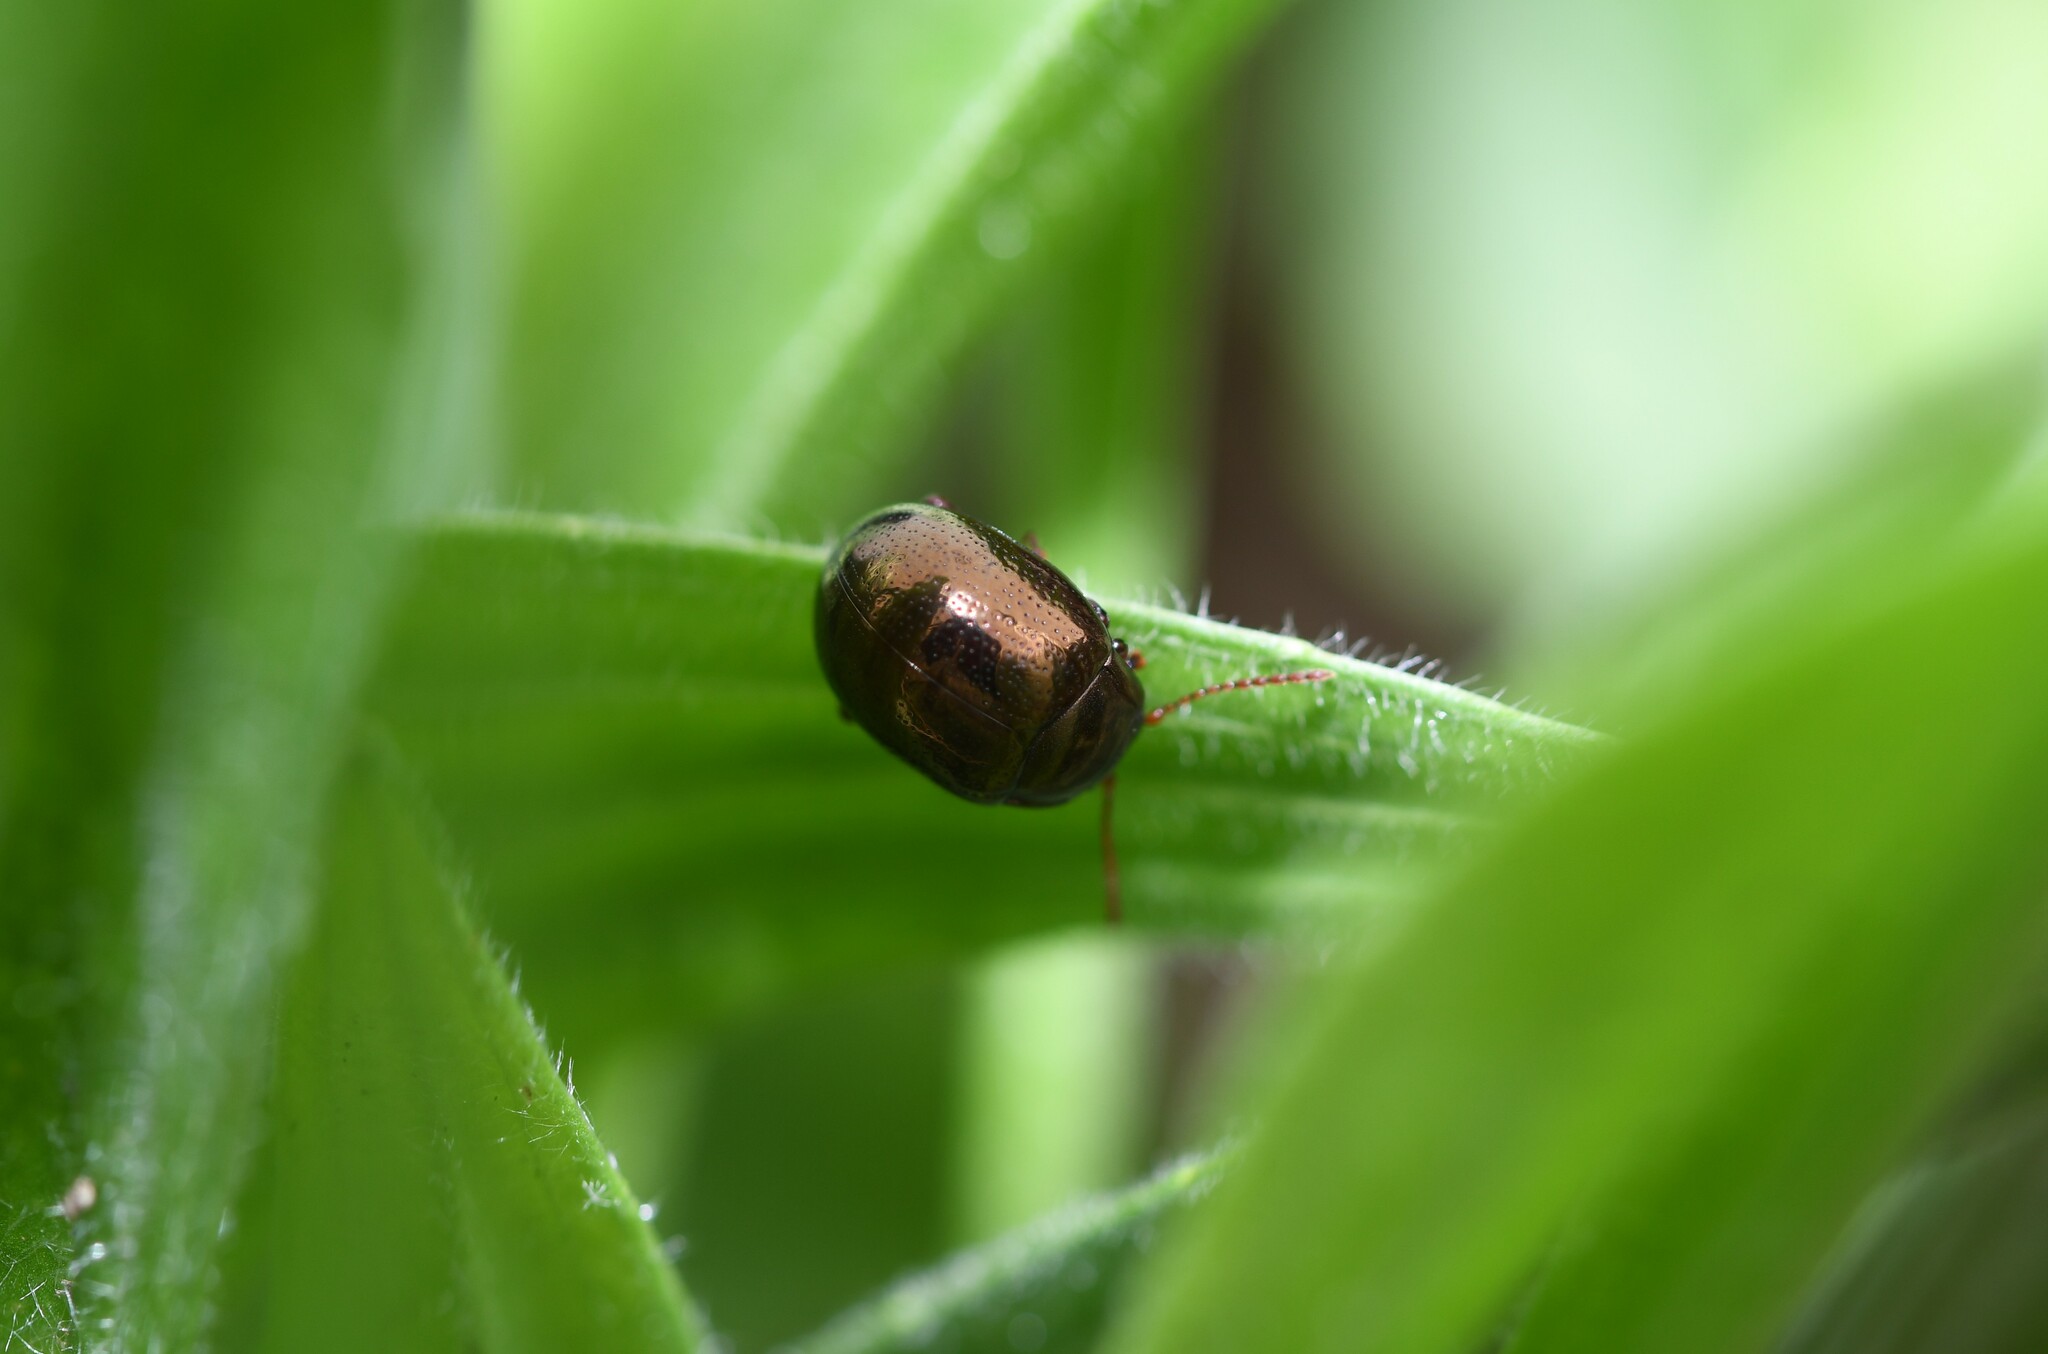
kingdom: Animalia
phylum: Arthropoda
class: Insecta
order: Coleoptera
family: Chrysomelidae
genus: Chrysolina
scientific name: Chrysolina bankii
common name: Leaf beetle
